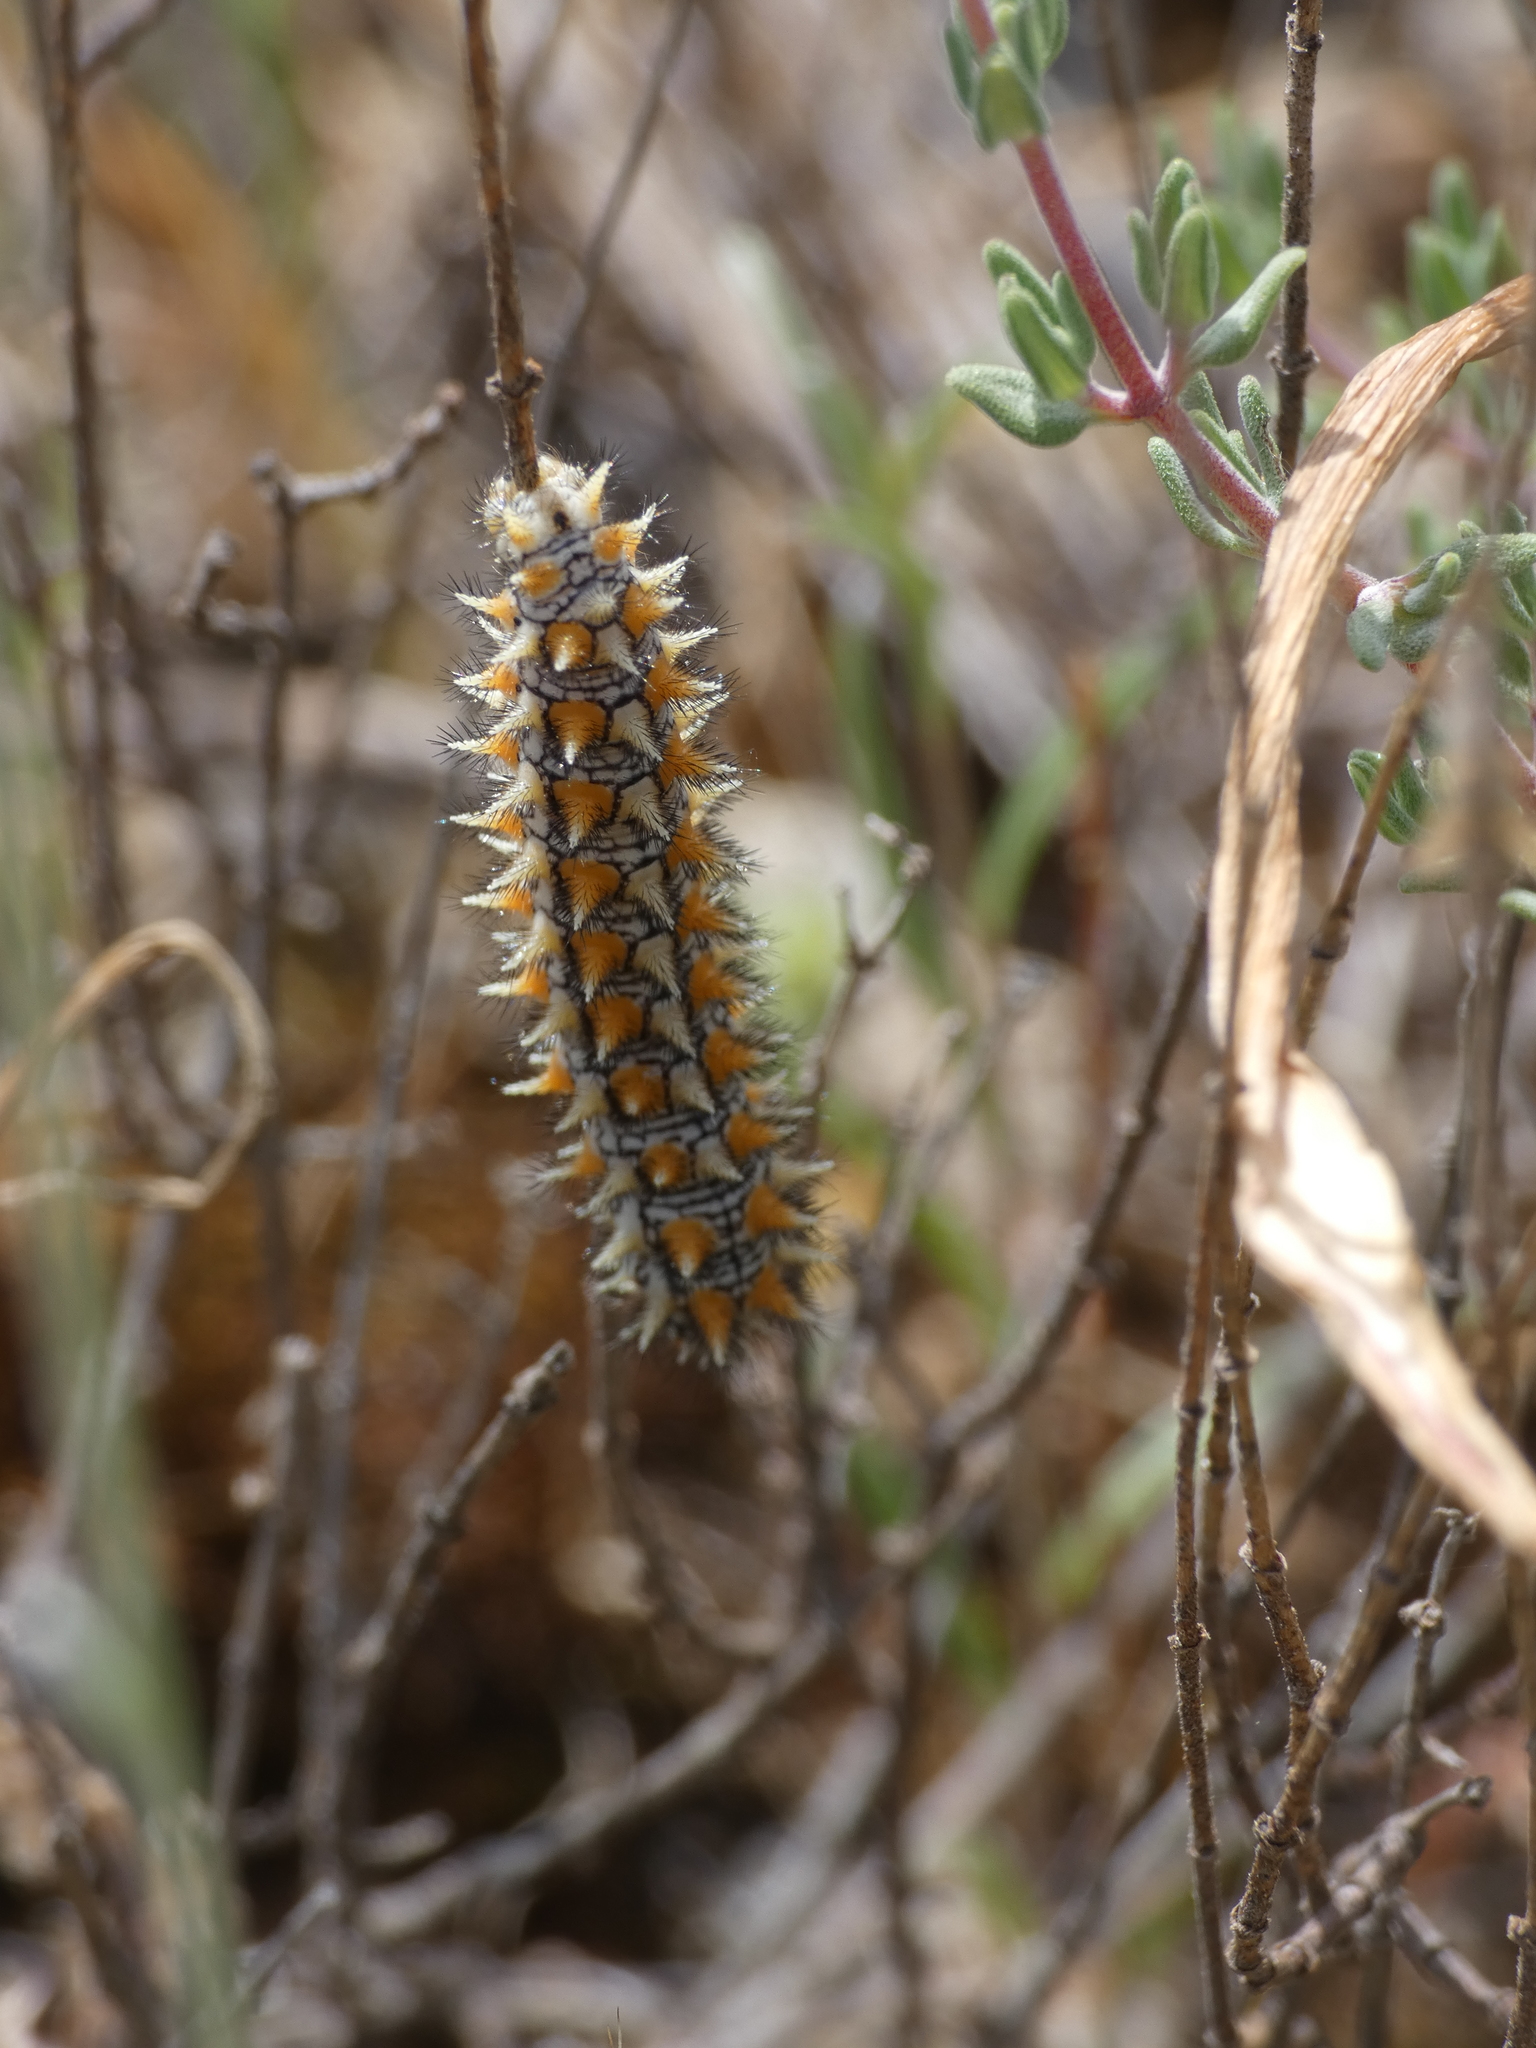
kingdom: Animalia
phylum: Arthropoda
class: Insecta
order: Lepidoptera
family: Nymphalidae
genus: Melitaea
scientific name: Melitaea didyma
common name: Spotted fritillary
